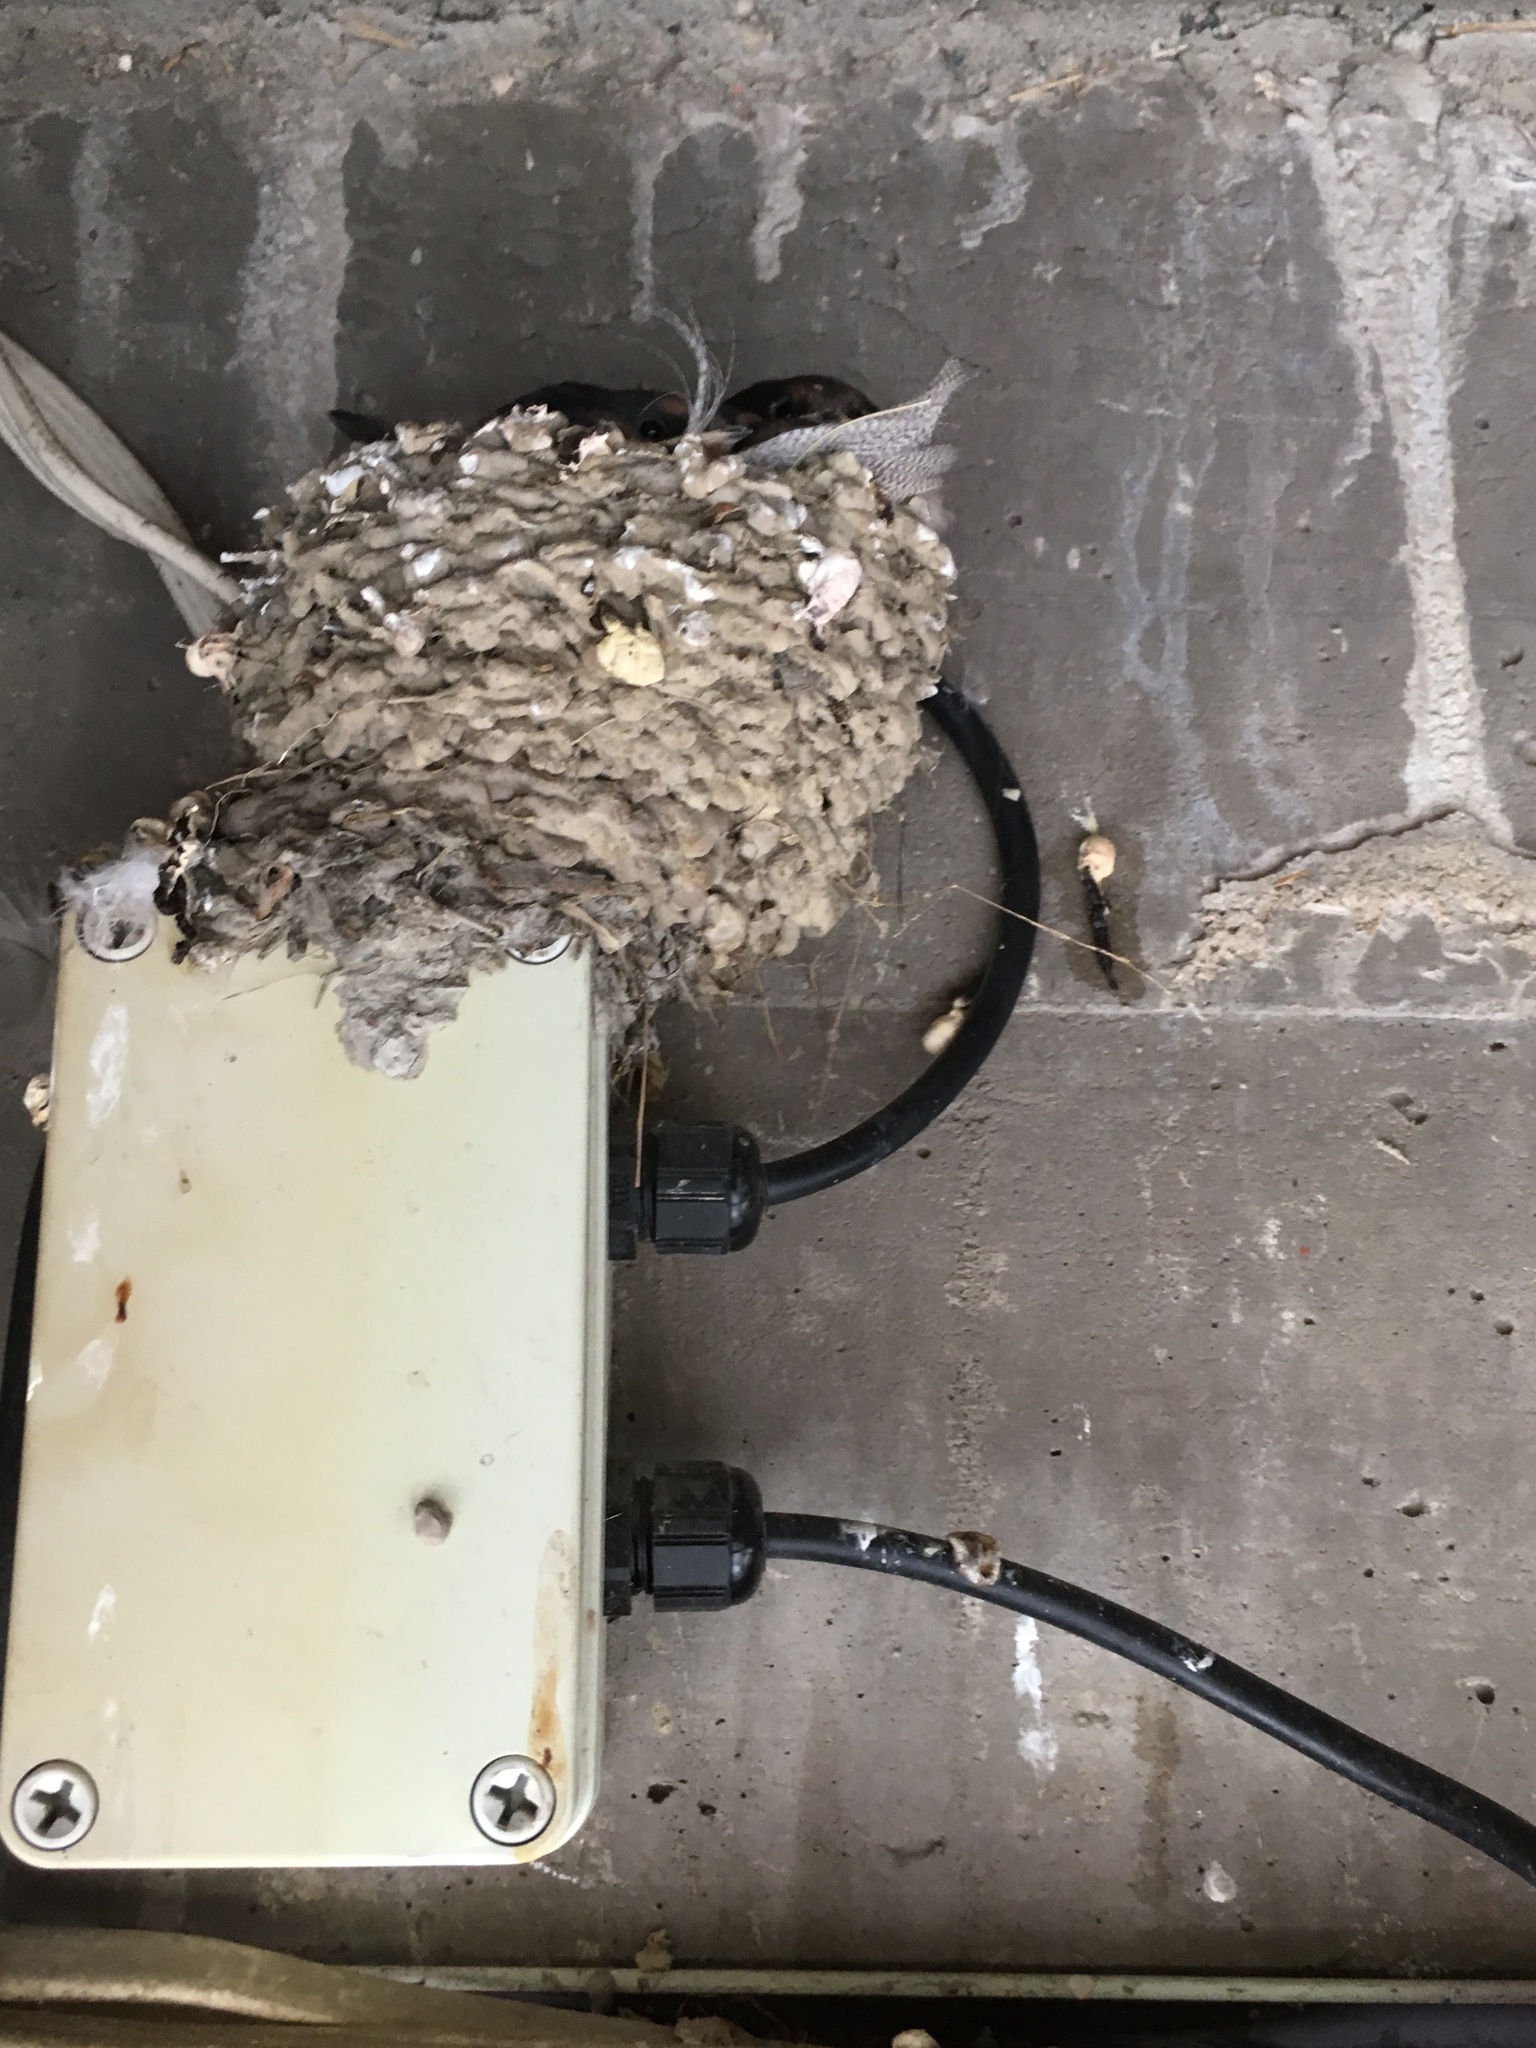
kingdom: Animalia
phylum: Chordata
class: Aves
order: Passeriformes
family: Hirundinidae
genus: Hirundo
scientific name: Hirundo neoxena
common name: Welcome swallow
